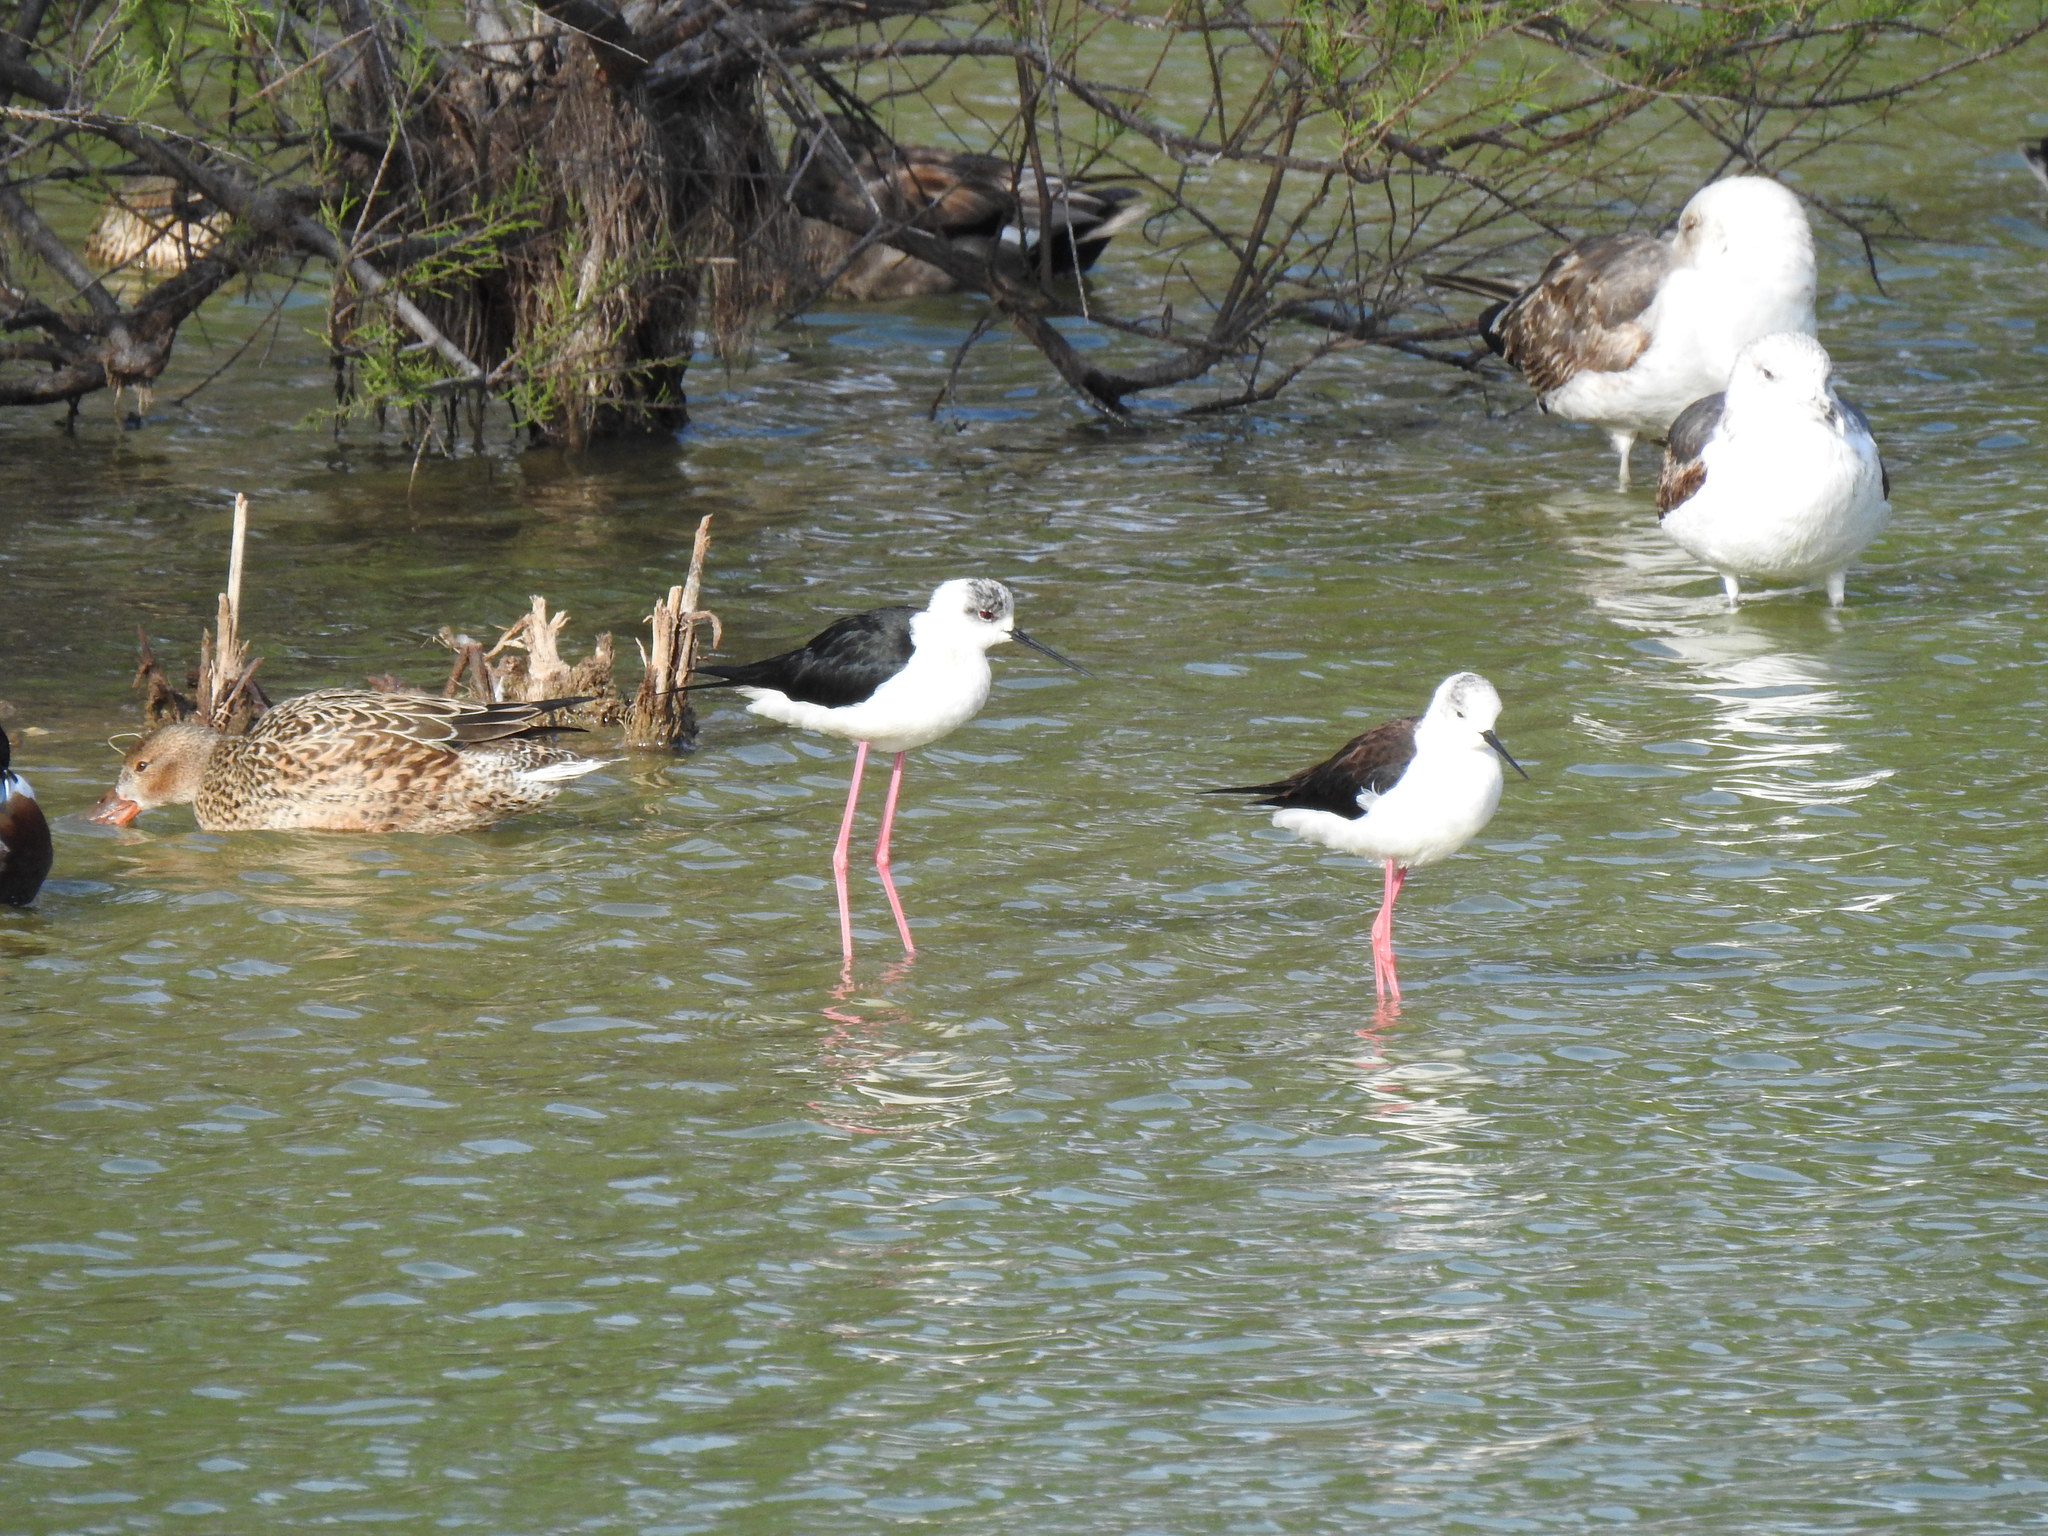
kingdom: Animalia
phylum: Chordata
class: Aves
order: Charadriiformes
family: Recurvirostridae
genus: Himantopus
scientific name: Himantopus himantopus
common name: Black-winged stilt
